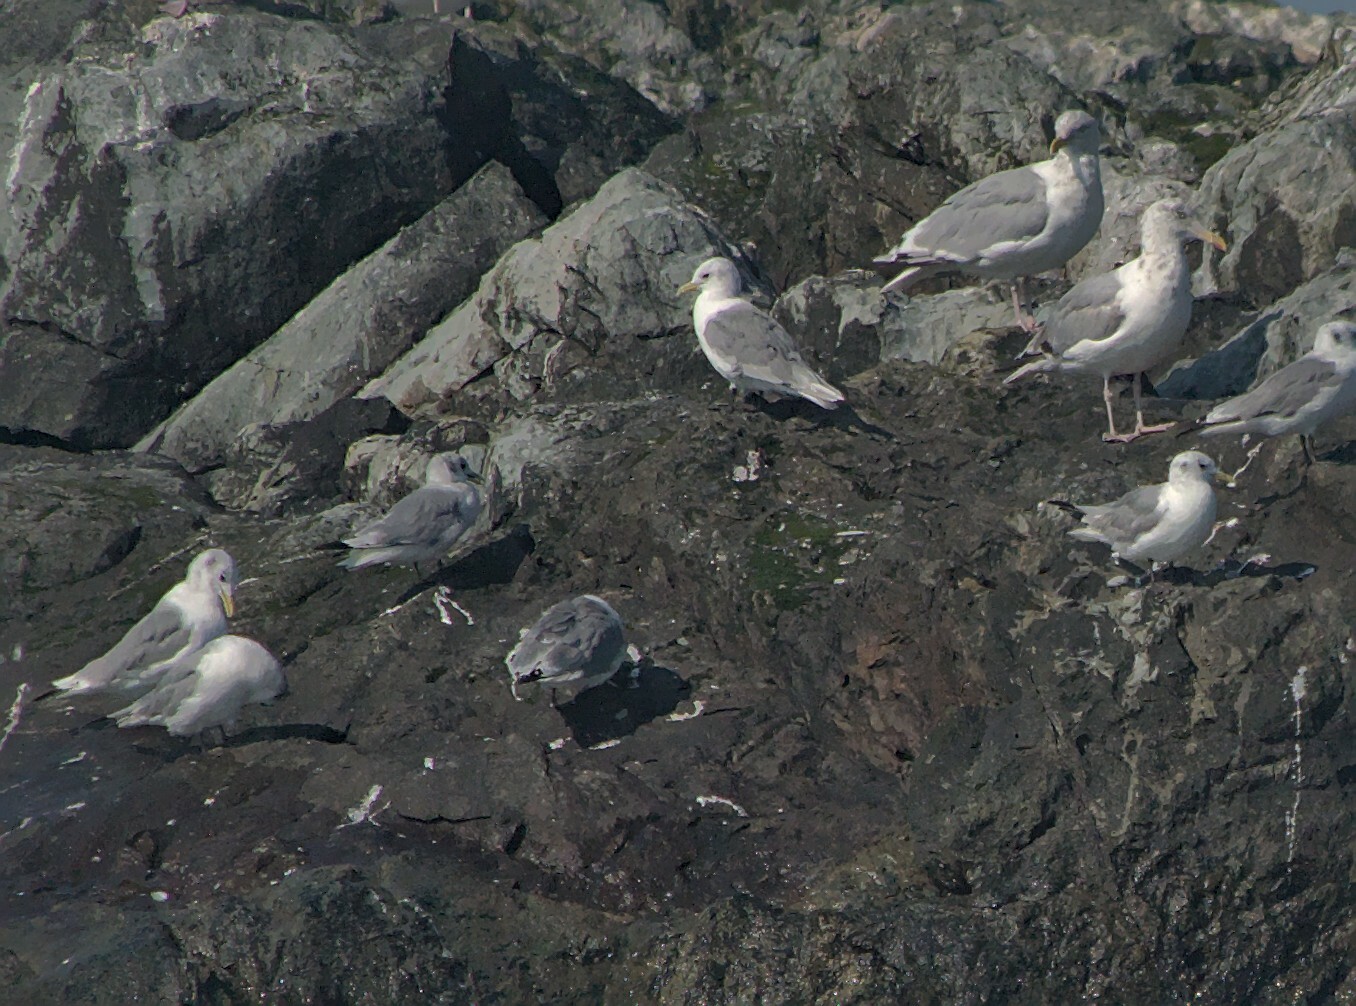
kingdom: Animalia
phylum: Chordata
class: Aves
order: Charadriiformes
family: Laridae
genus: Rissa
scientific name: Rissa tridactyla
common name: Black-legged kittiwake
